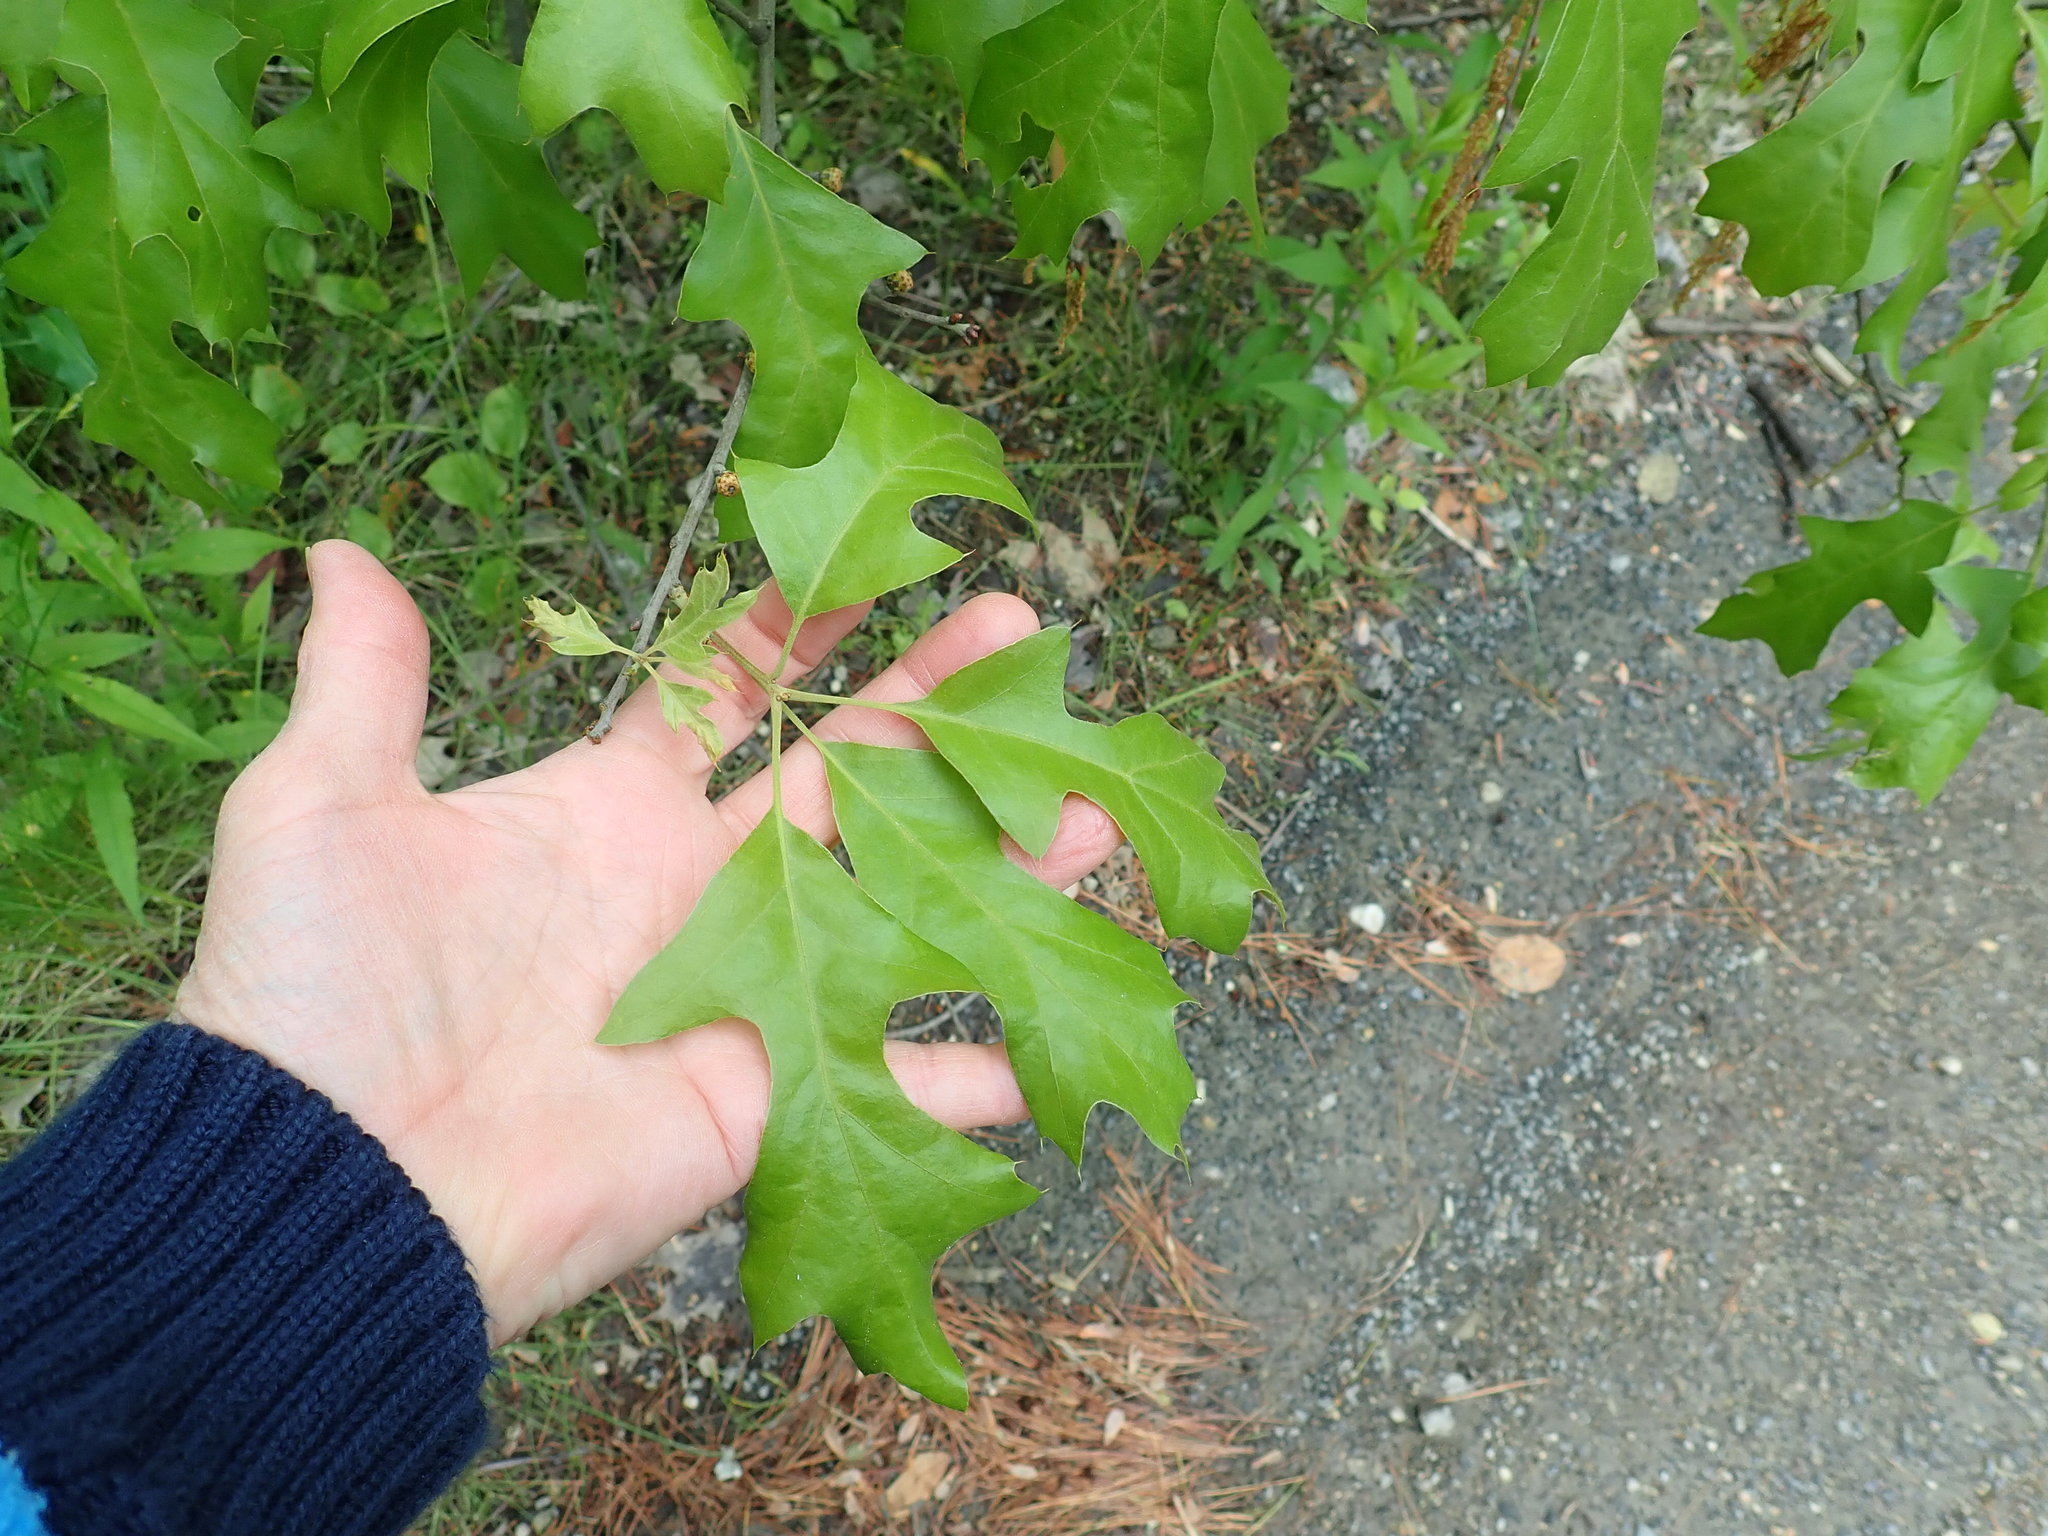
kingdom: Plantae
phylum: Tracheophyta
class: Magnoliopsida
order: Fagales
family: Fagaceae
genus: Quercus
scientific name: Quercus ilicifolia
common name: Bear oak
